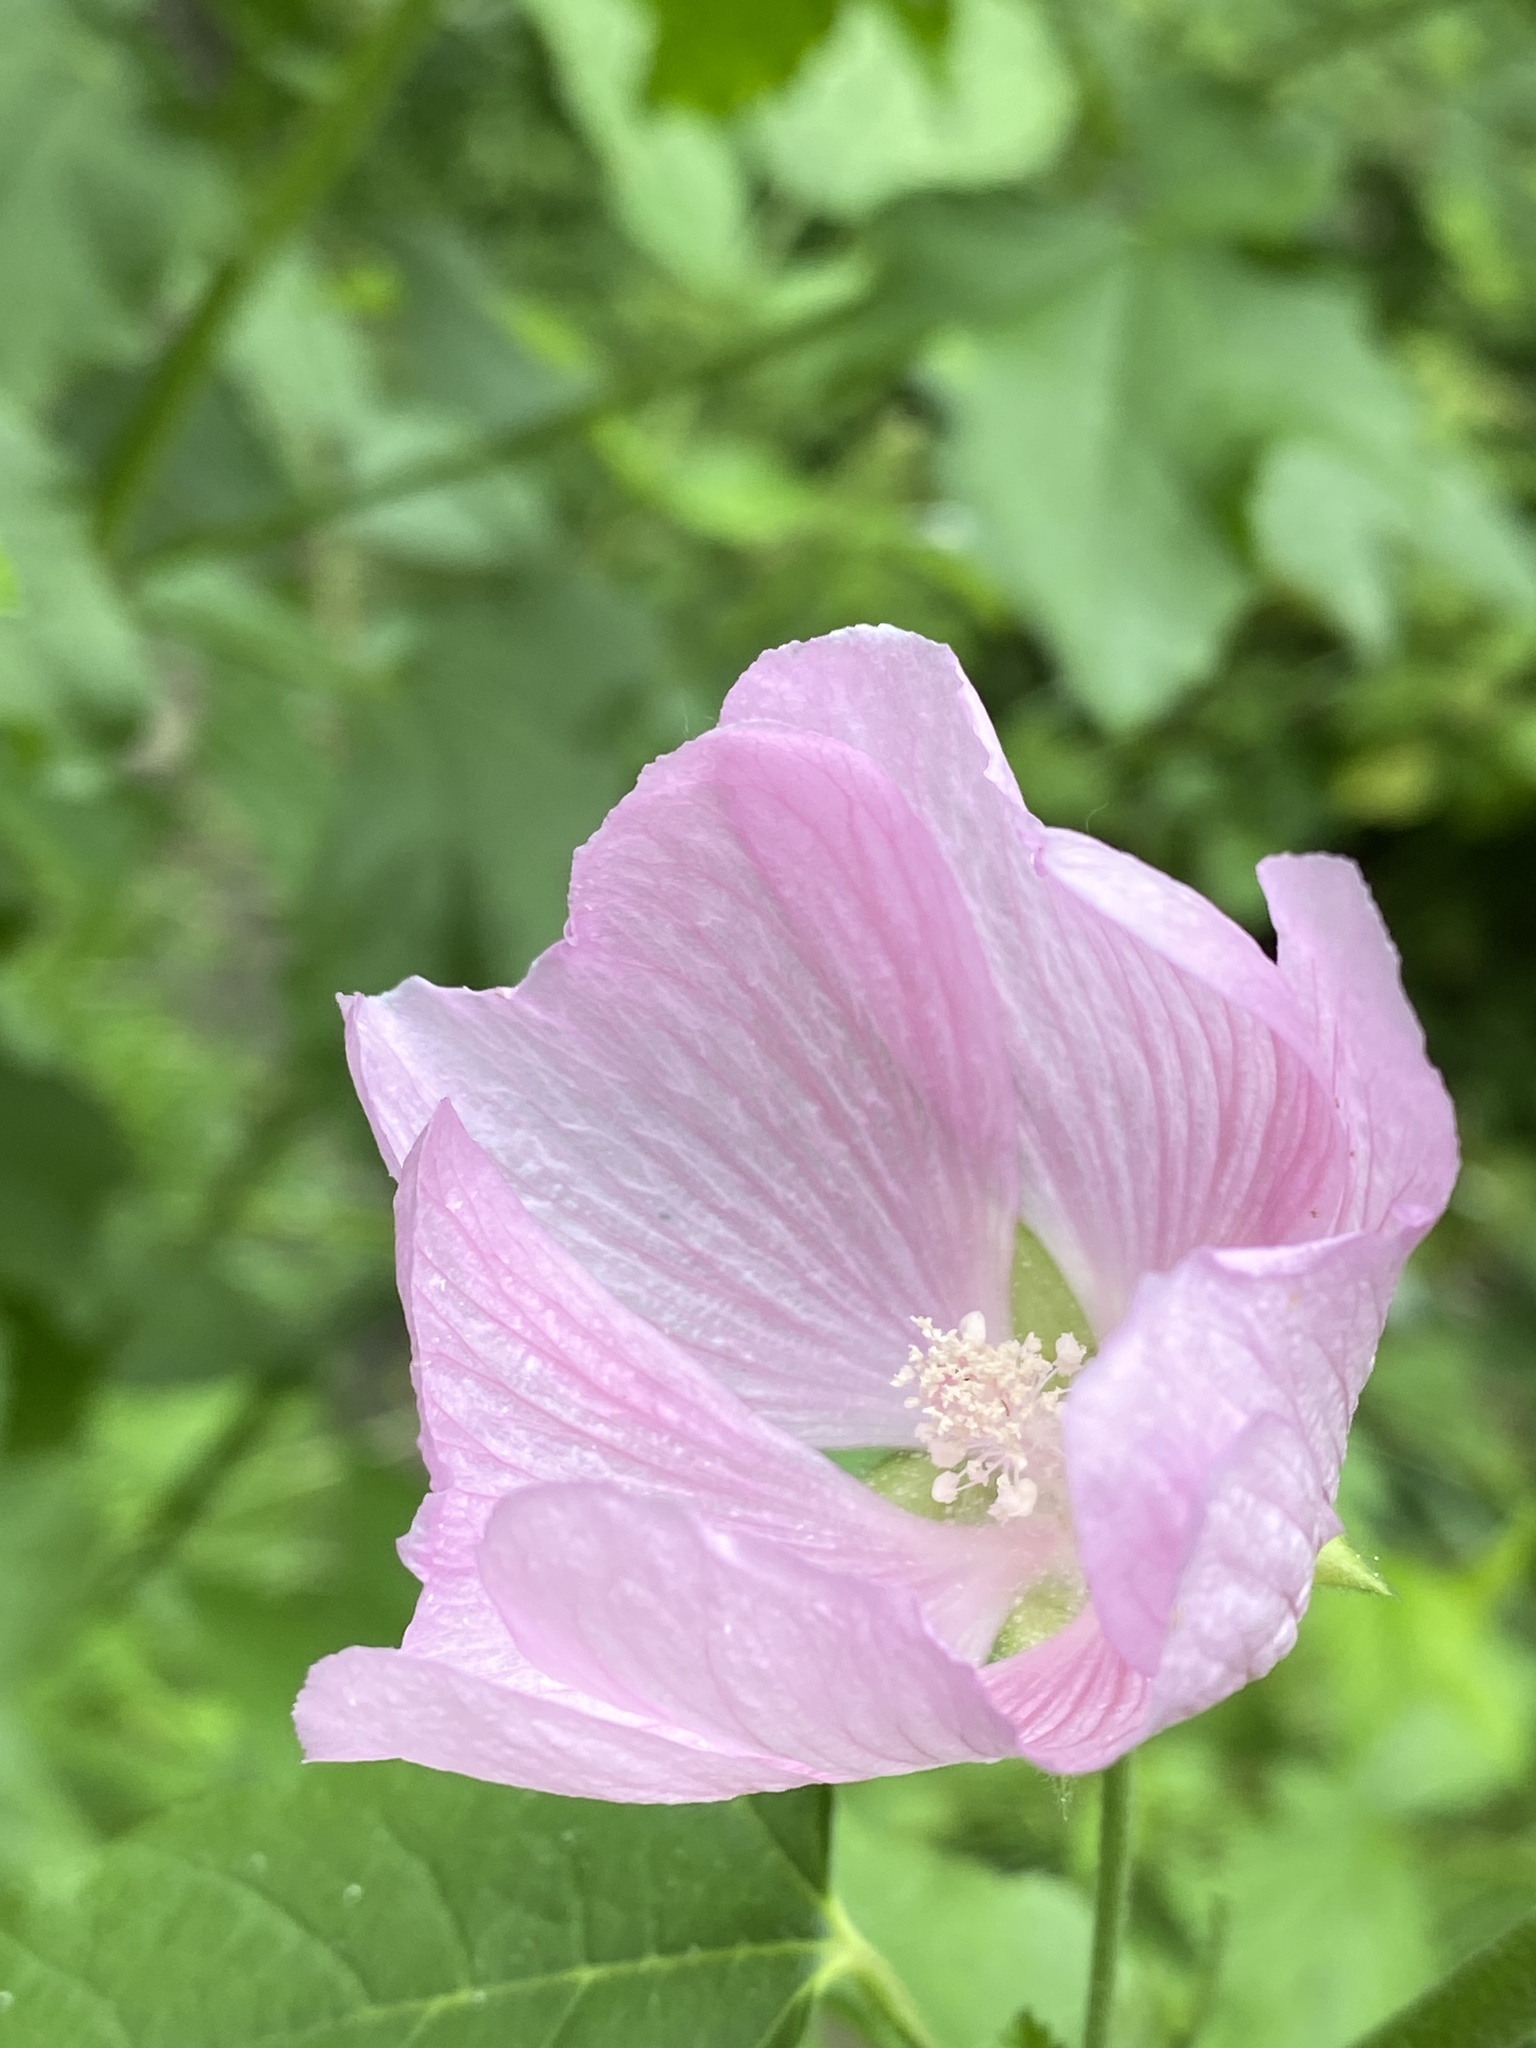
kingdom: Plantae
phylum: Tracheophyta
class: Magnoliopsida
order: Malvales
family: Malvaceae
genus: Malva
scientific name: Malva thuringiaca
